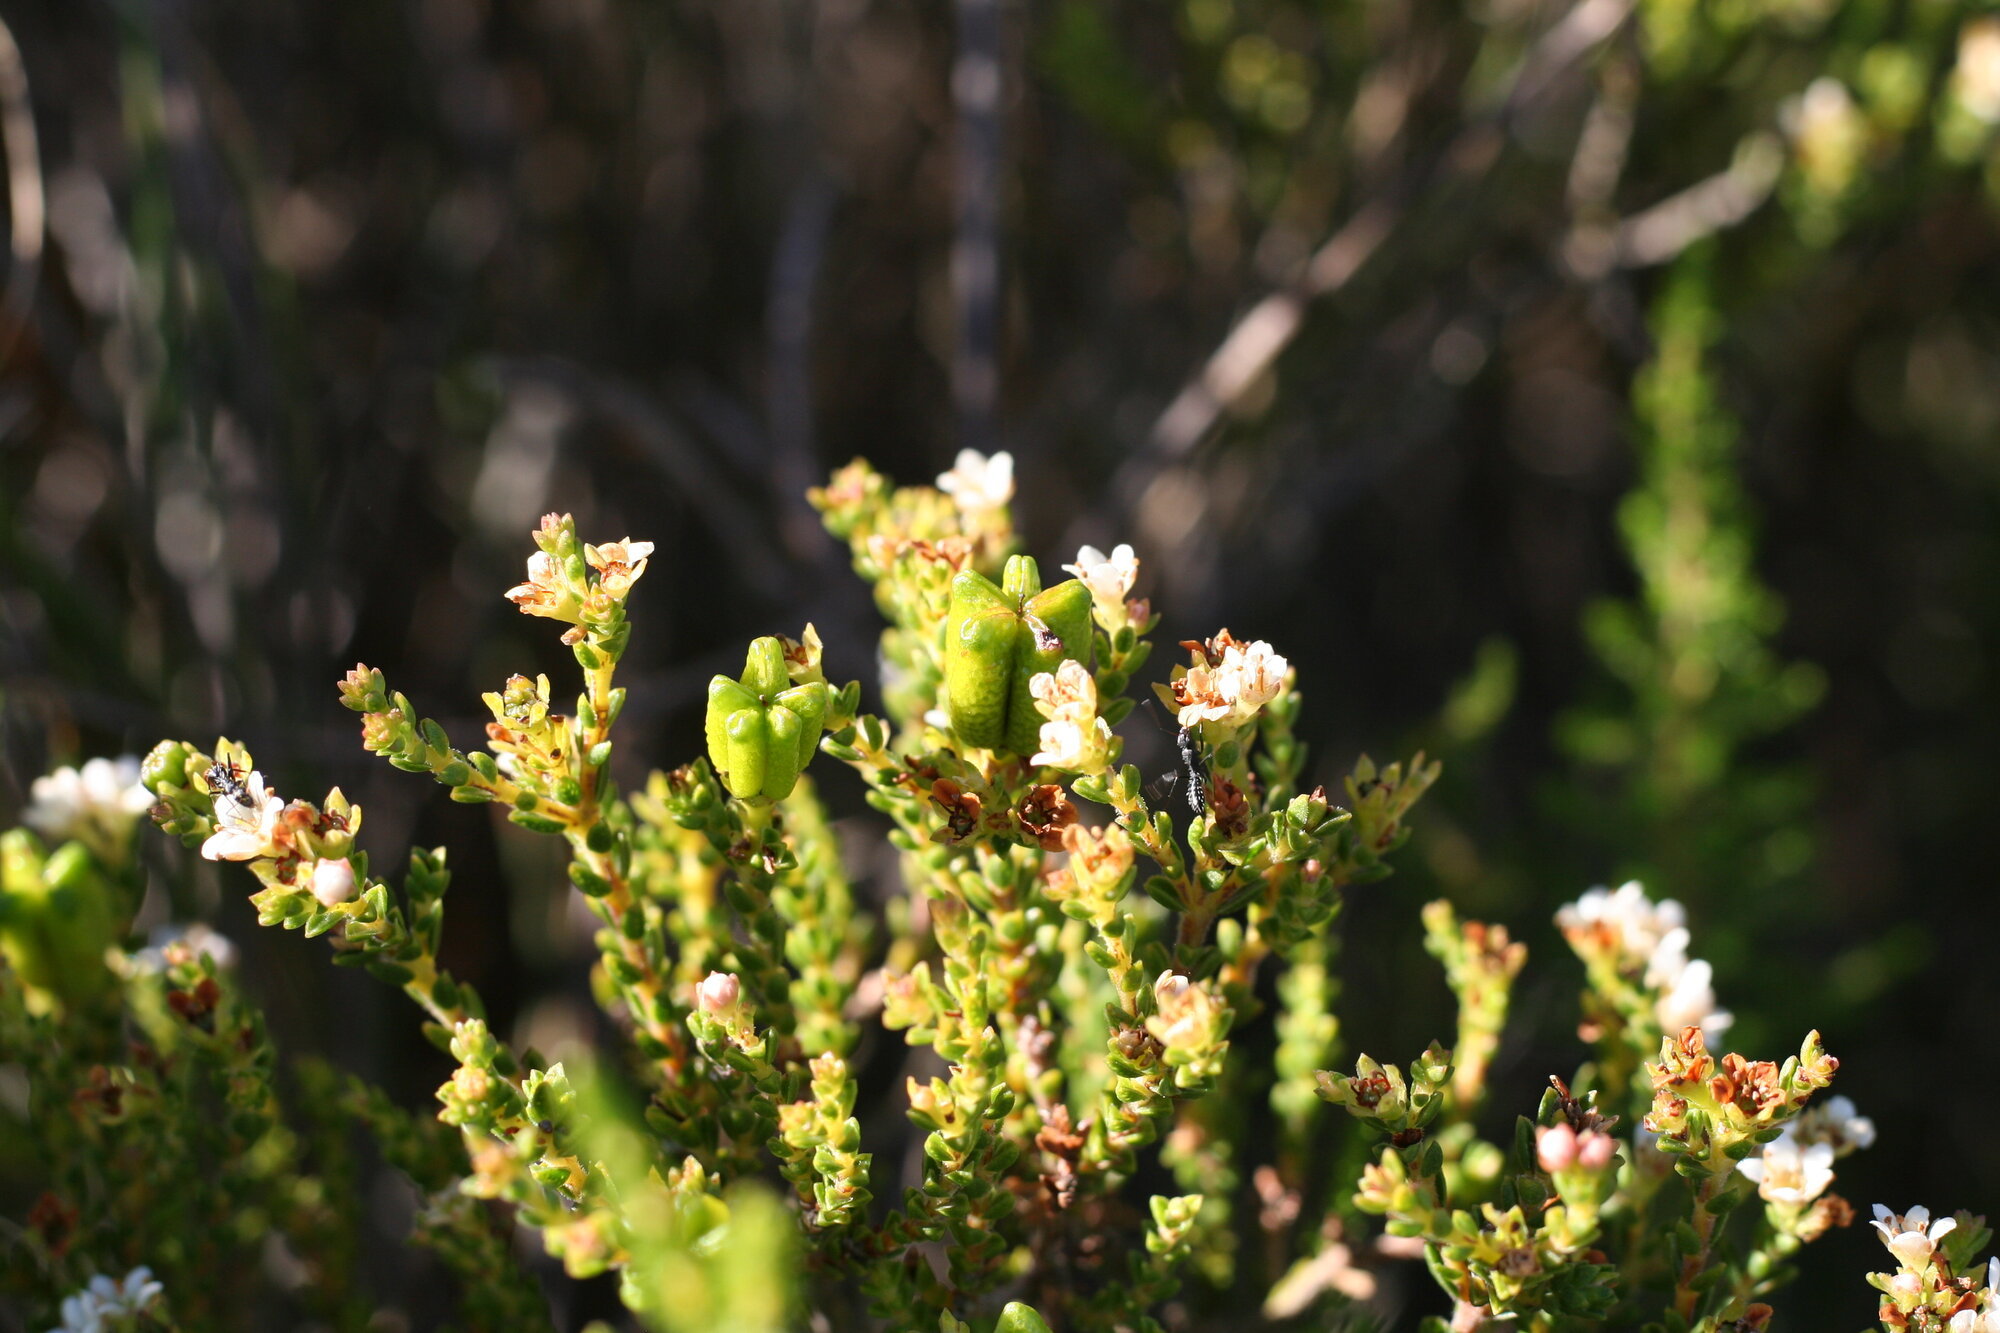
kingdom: Plantae
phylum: Tracheophyta
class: Magnoliopsida
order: Sapindales
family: Rutaceae
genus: Diosma
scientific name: Diosma oppositifolia
